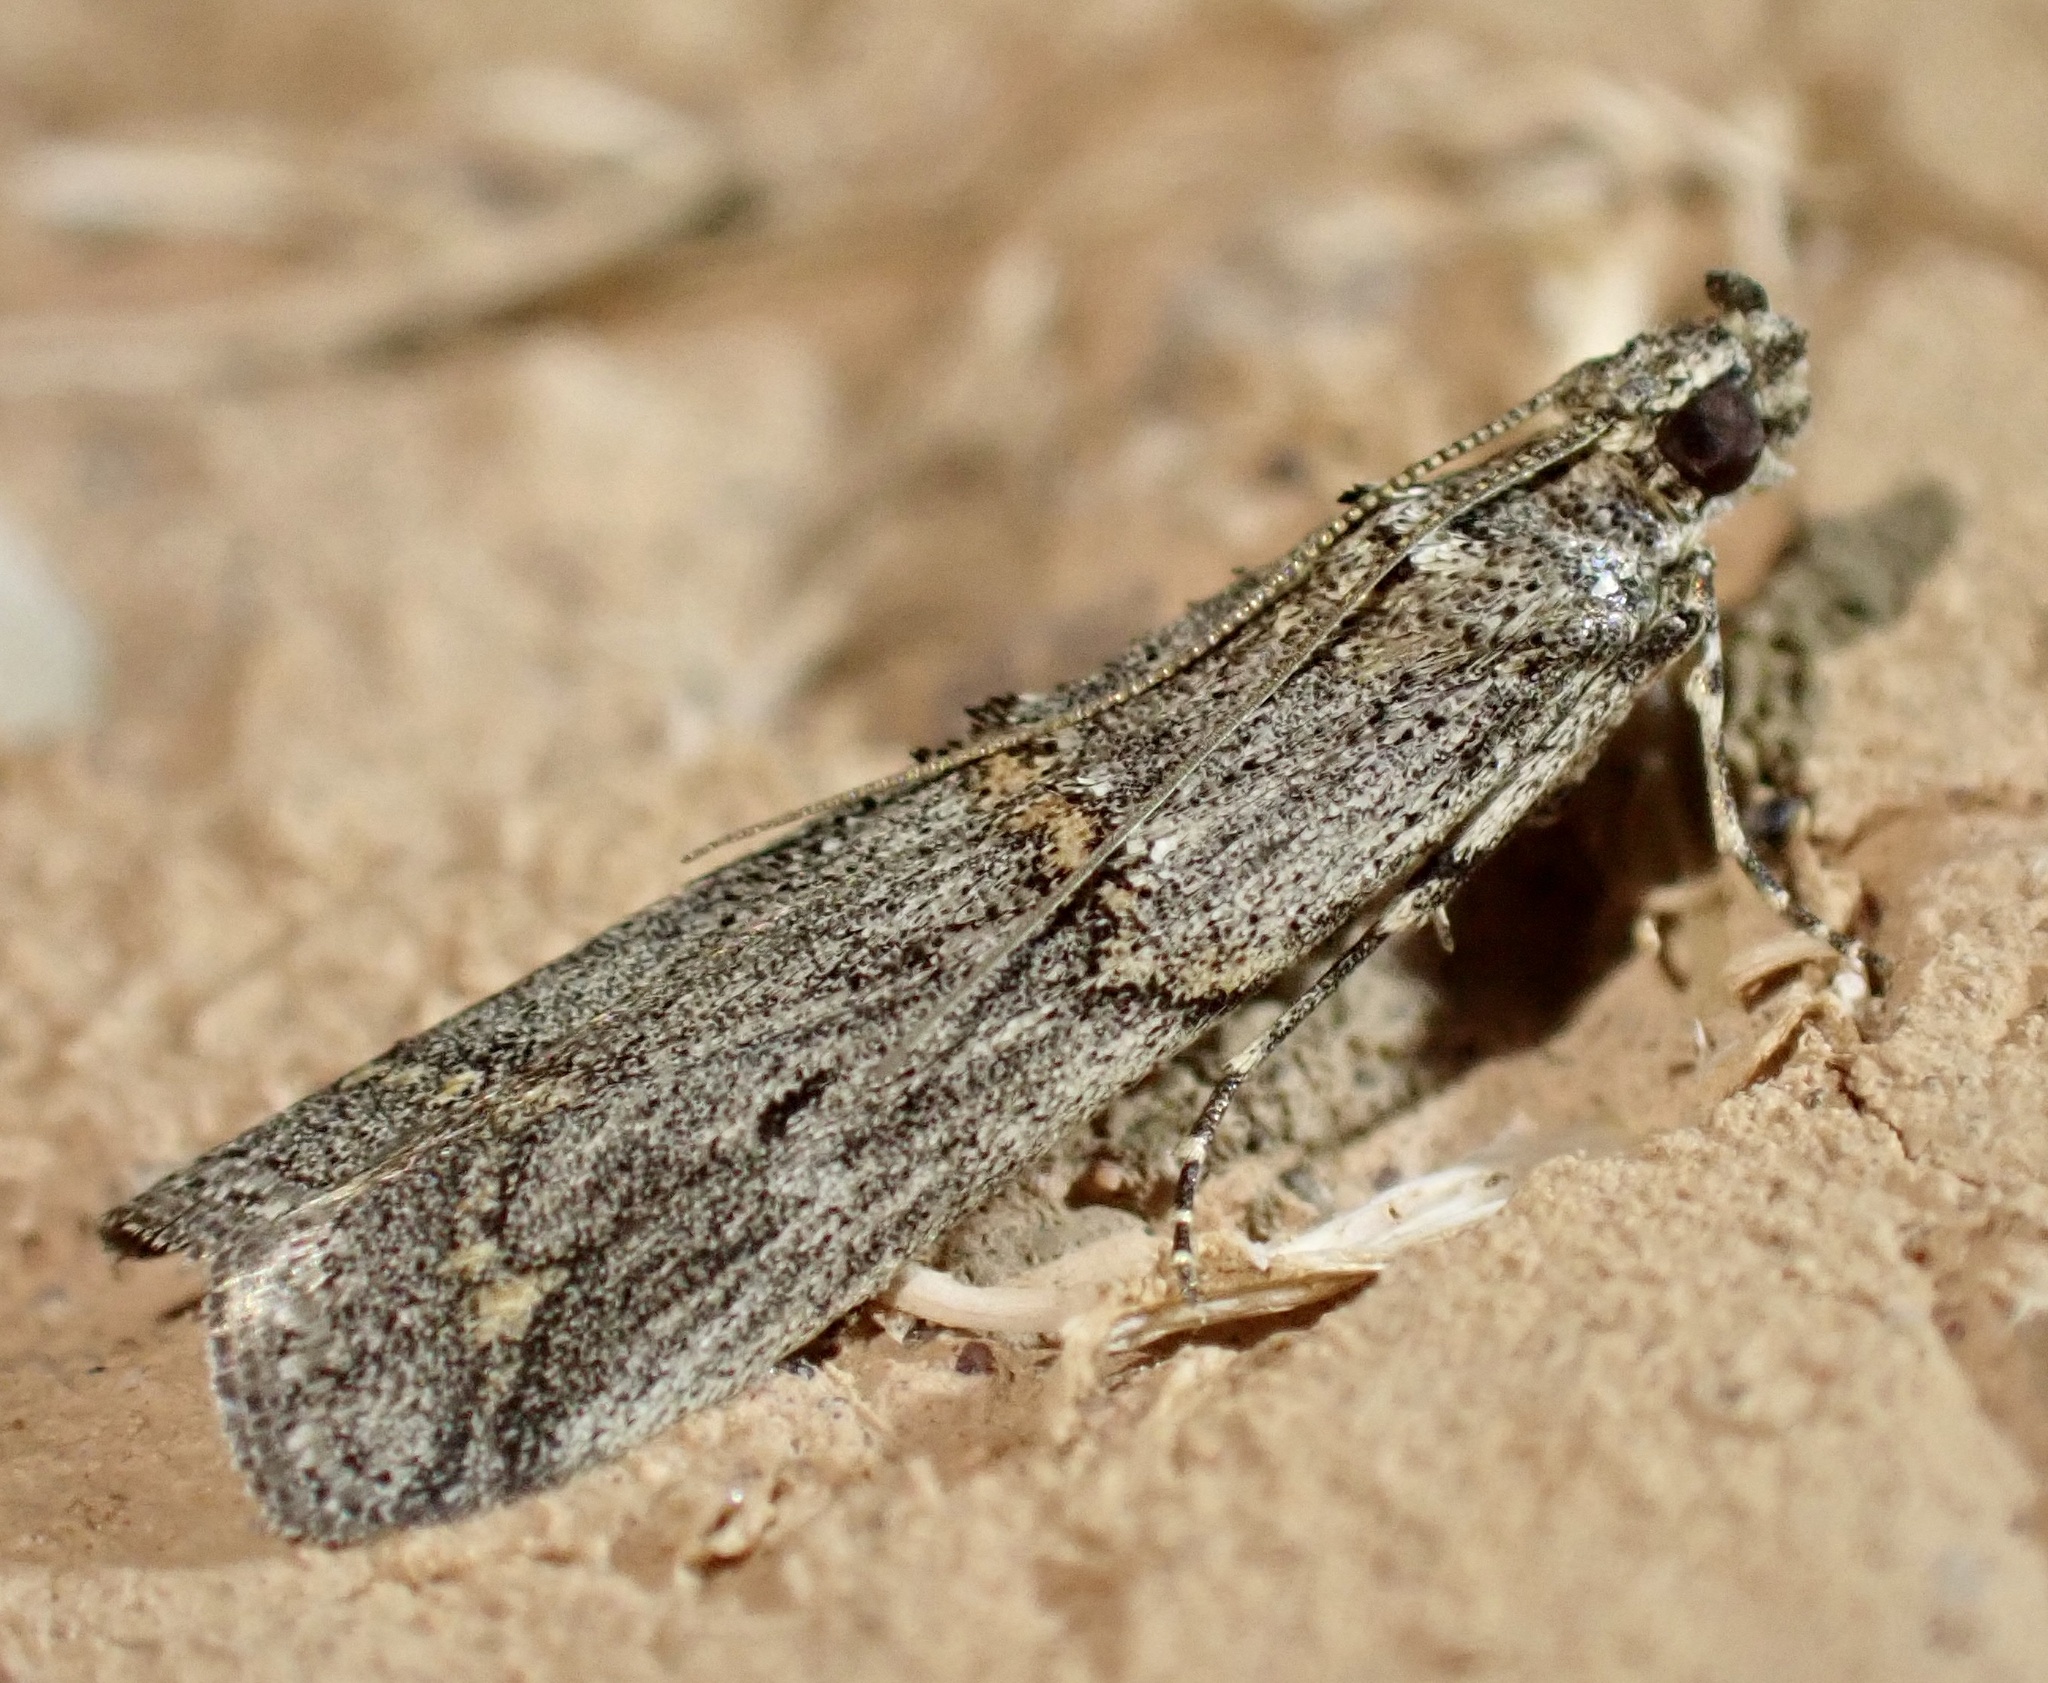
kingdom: Animalia
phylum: Arthropoda
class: Insecta
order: Lepidoptera
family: Pyralidae
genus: Pempelia
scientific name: Pempelia brephiella
